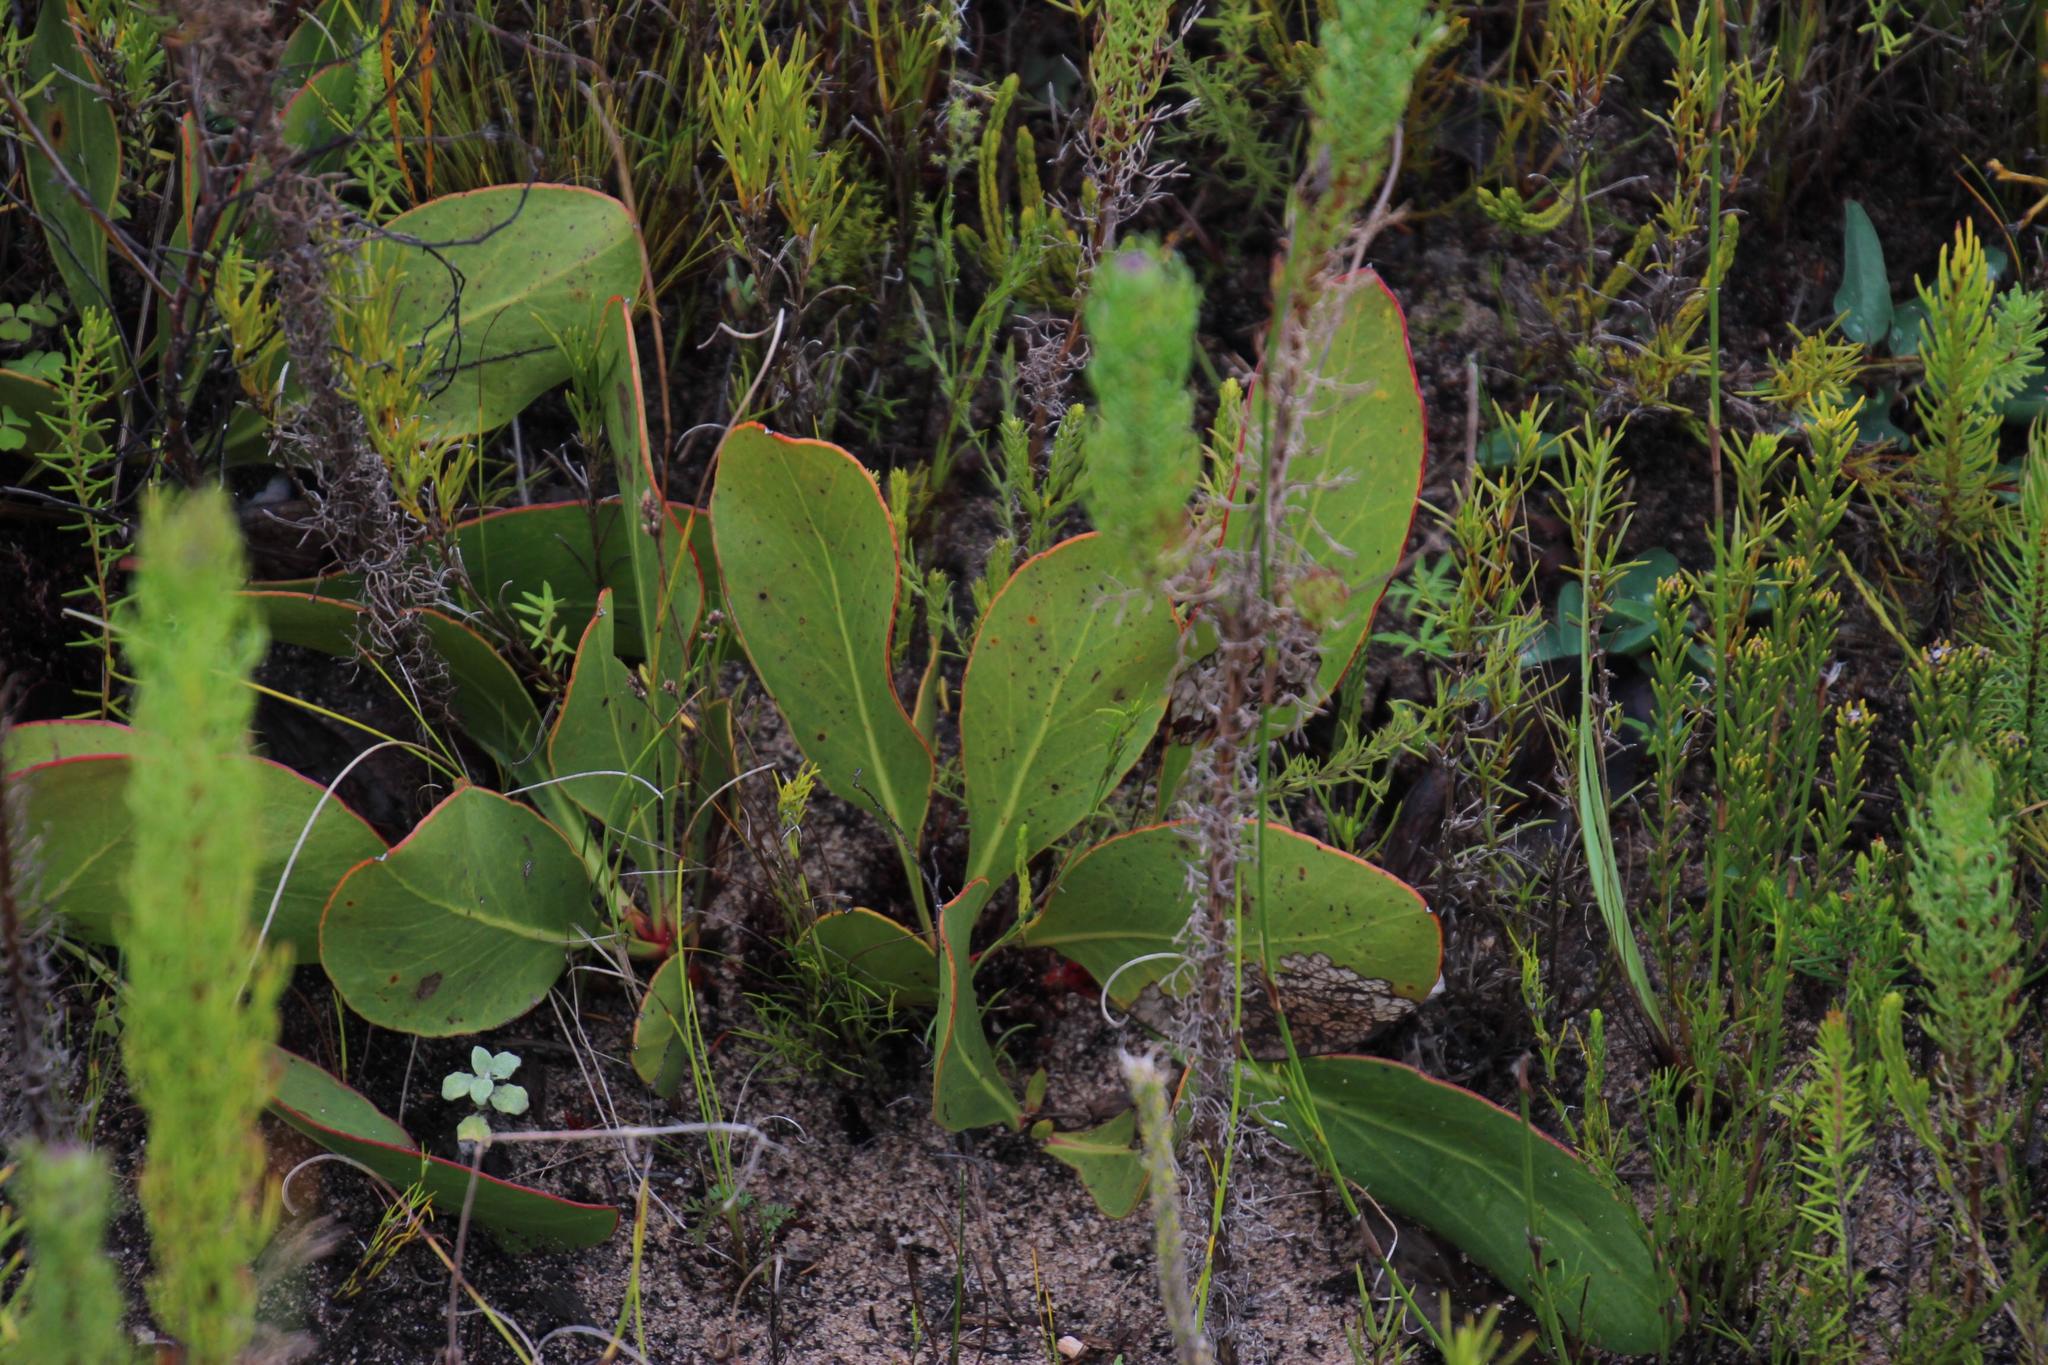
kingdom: Plantae
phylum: Tracheophyta
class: Magnoliopsida
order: Proteales
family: Proteaceae
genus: Protea
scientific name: Protea acaulos
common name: Common ground sugarbush
